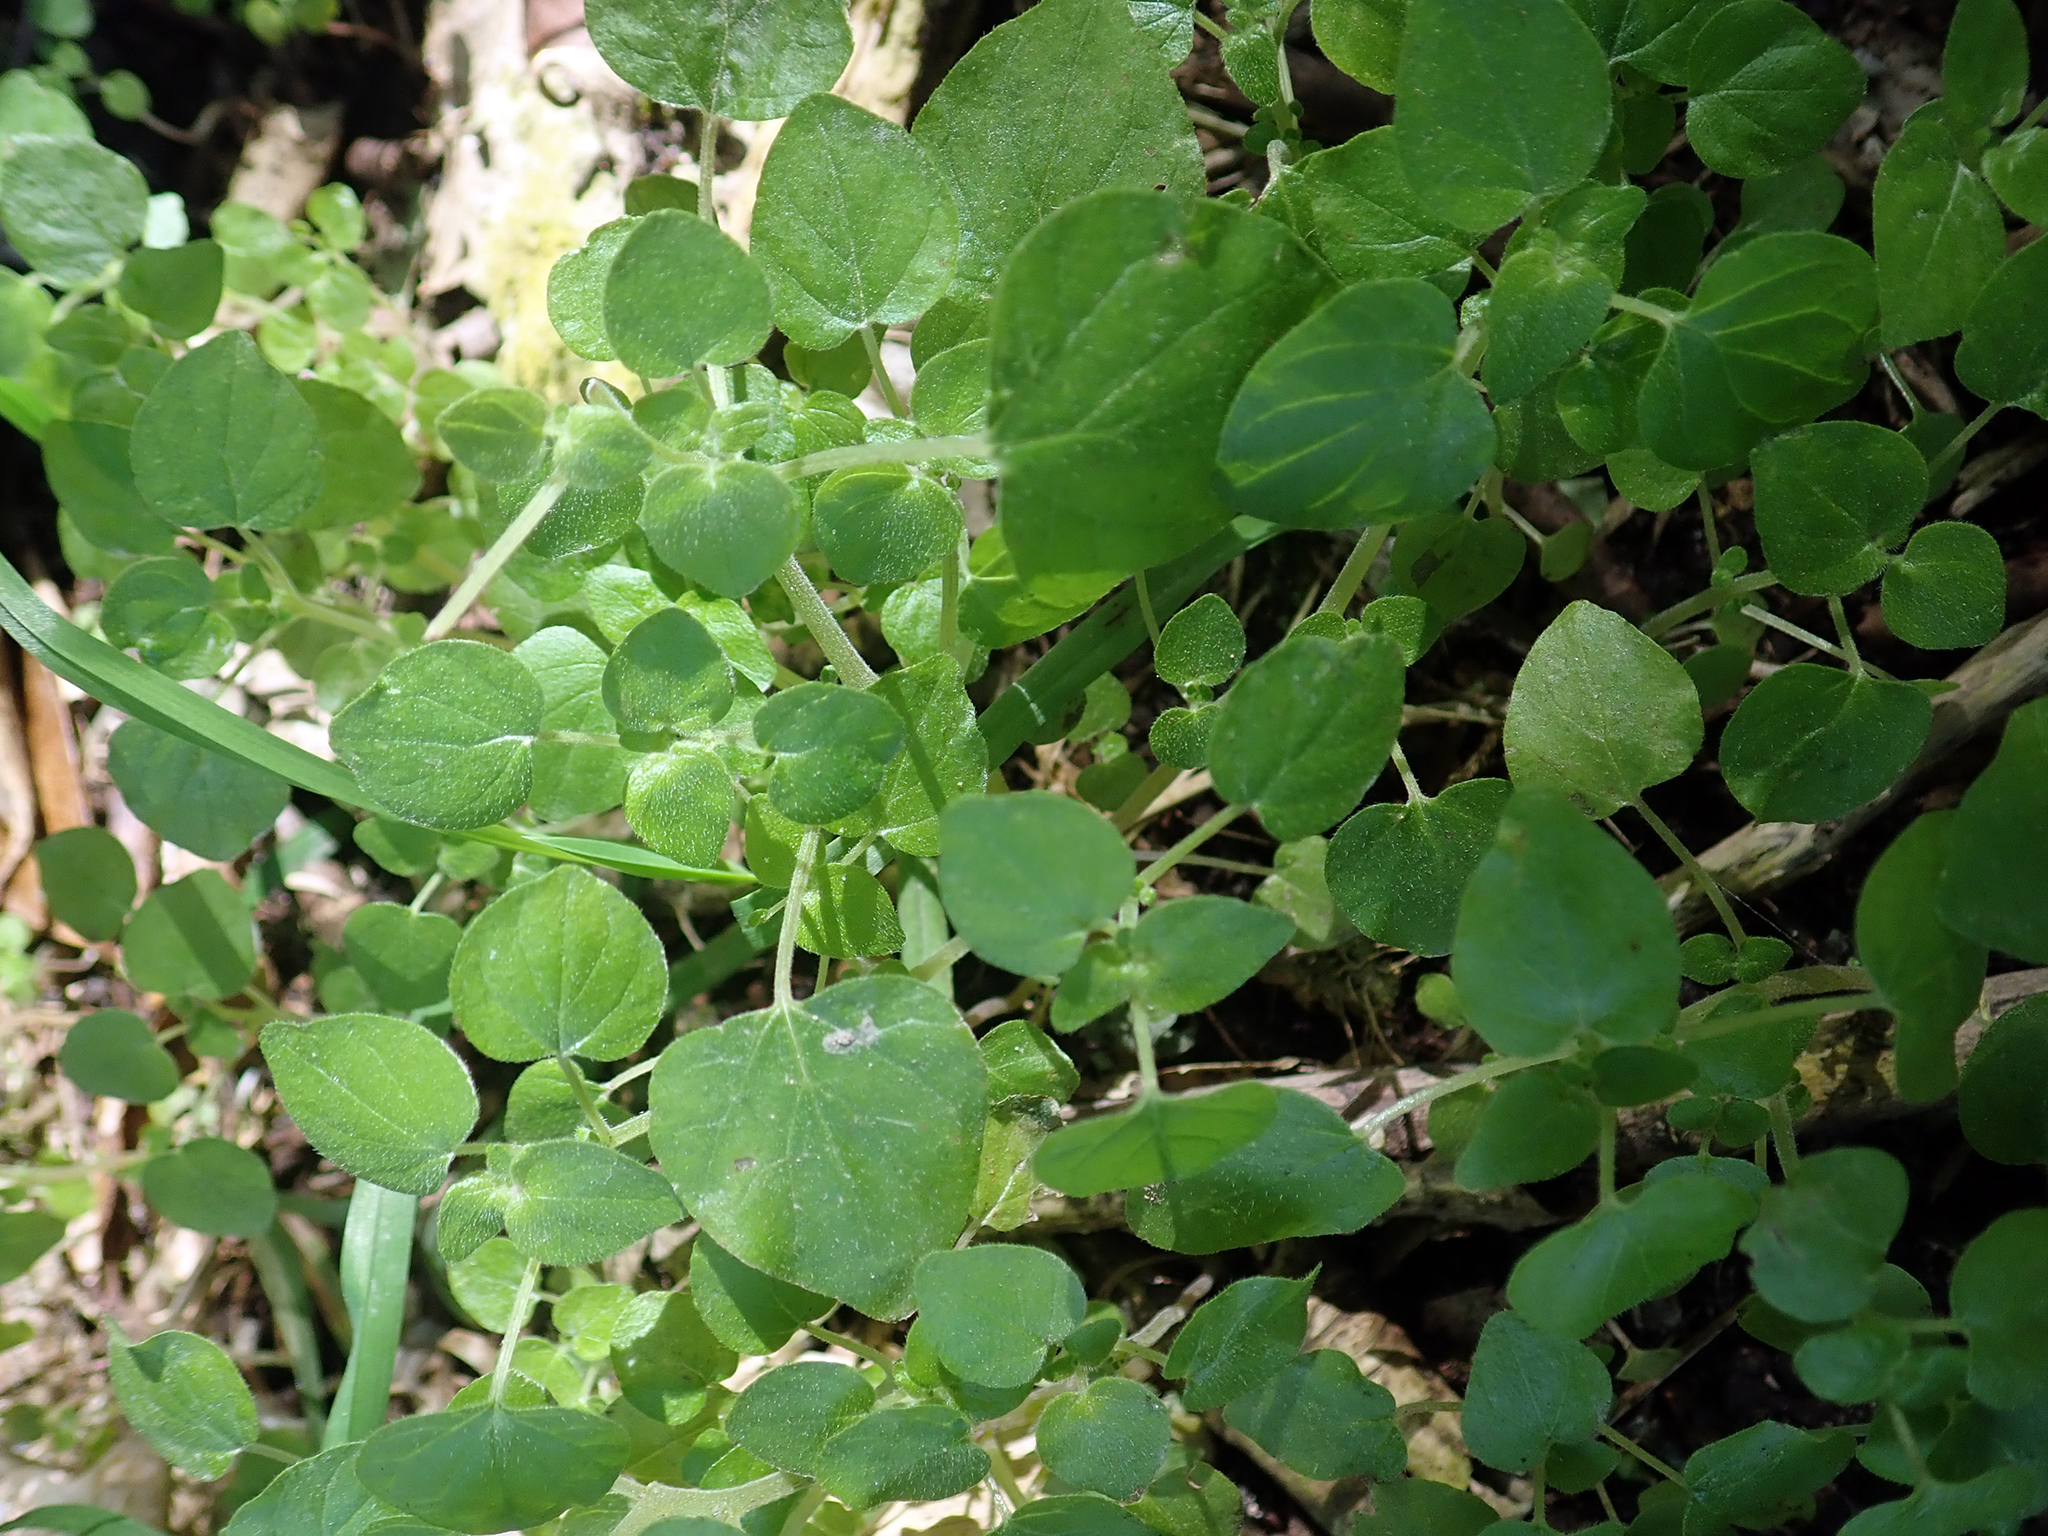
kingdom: Plantae
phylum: Tracheophyta
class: Magnoliopsida
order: Rosales
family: Urticaceae
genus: Parietaria
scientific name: Parietaria debilis
